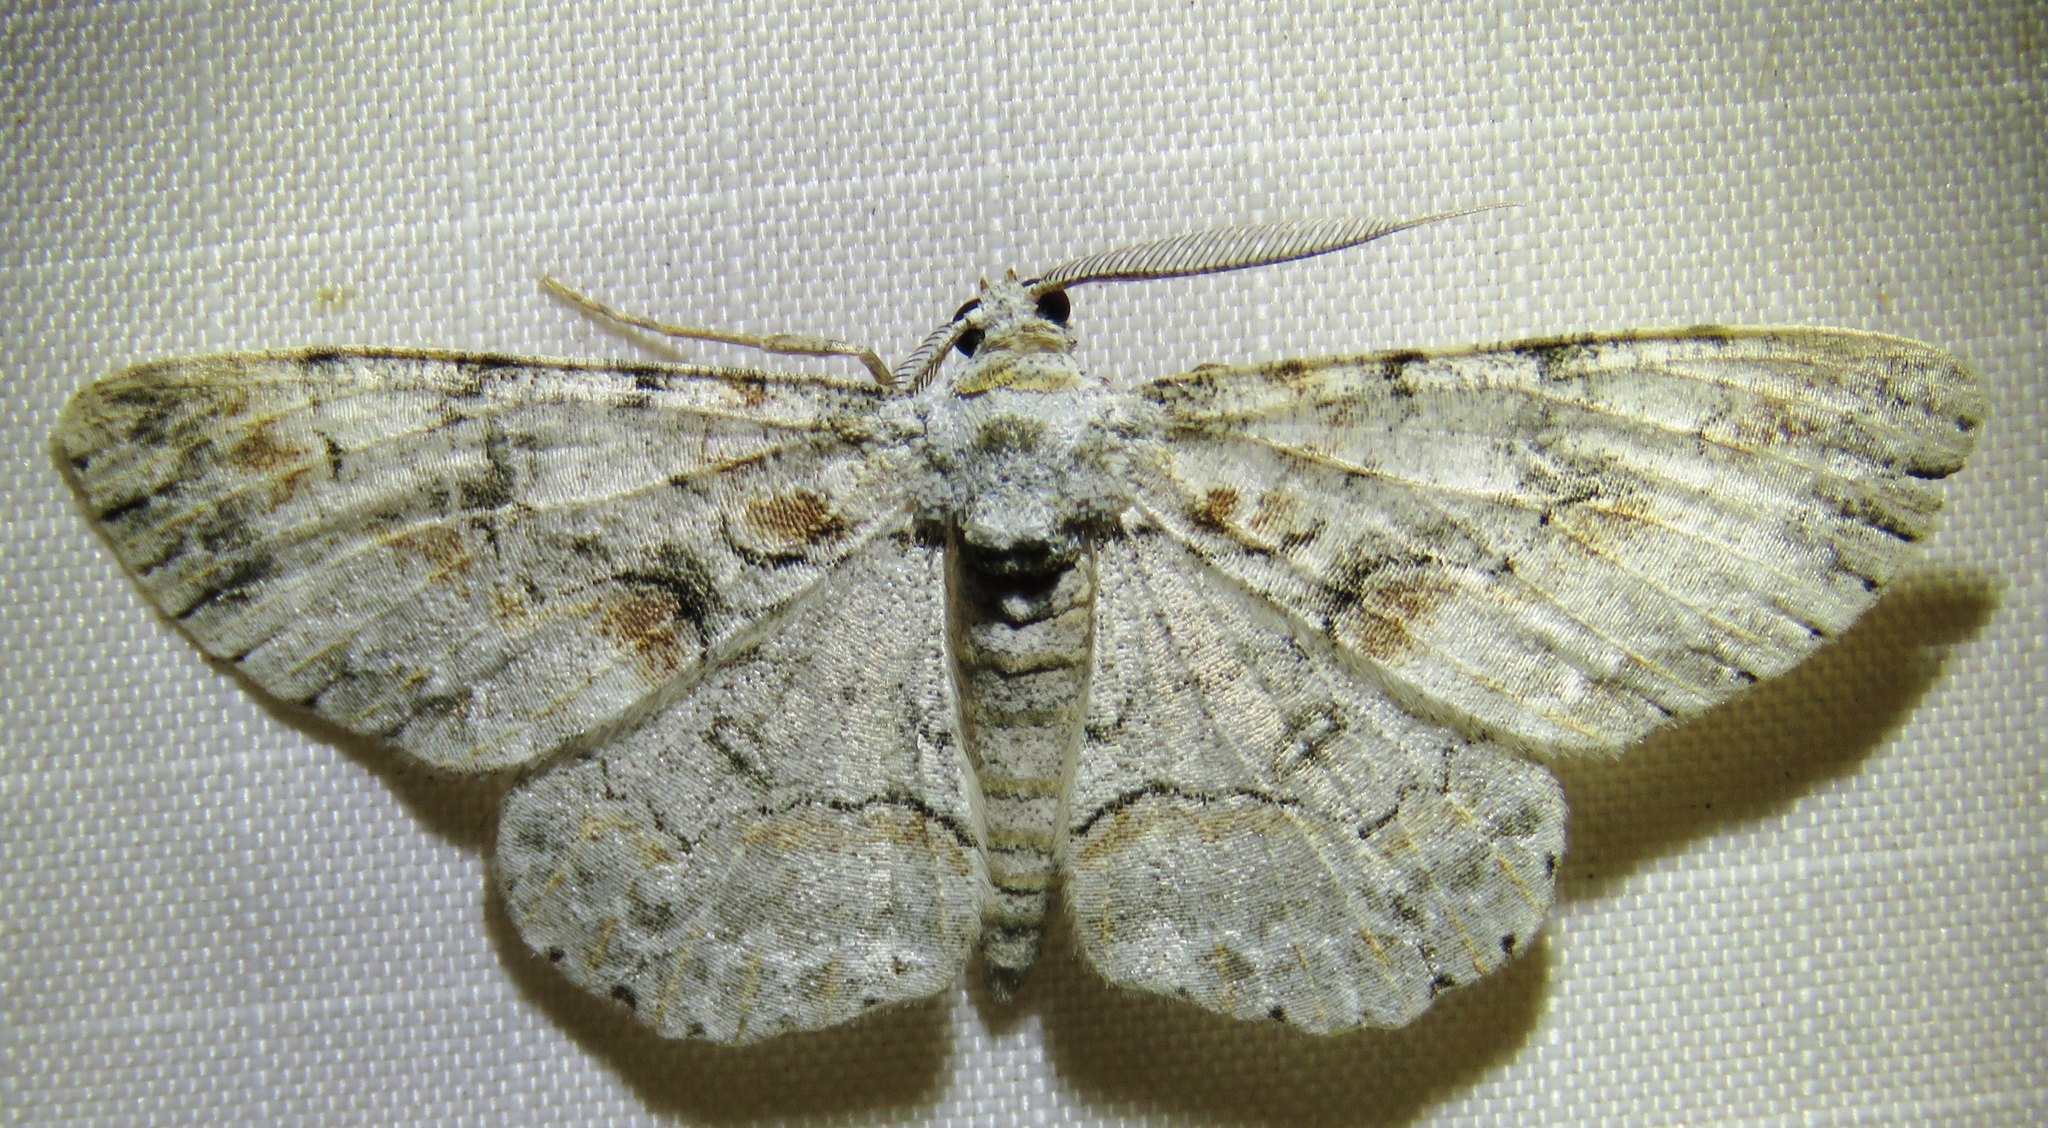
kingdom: Animalia
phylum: Arthropoda
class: Insecta
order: Lepidoptera
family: Geometridae
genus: Iridopsis
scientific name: Iridopsis defectaria
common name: Brown-shaded gray
